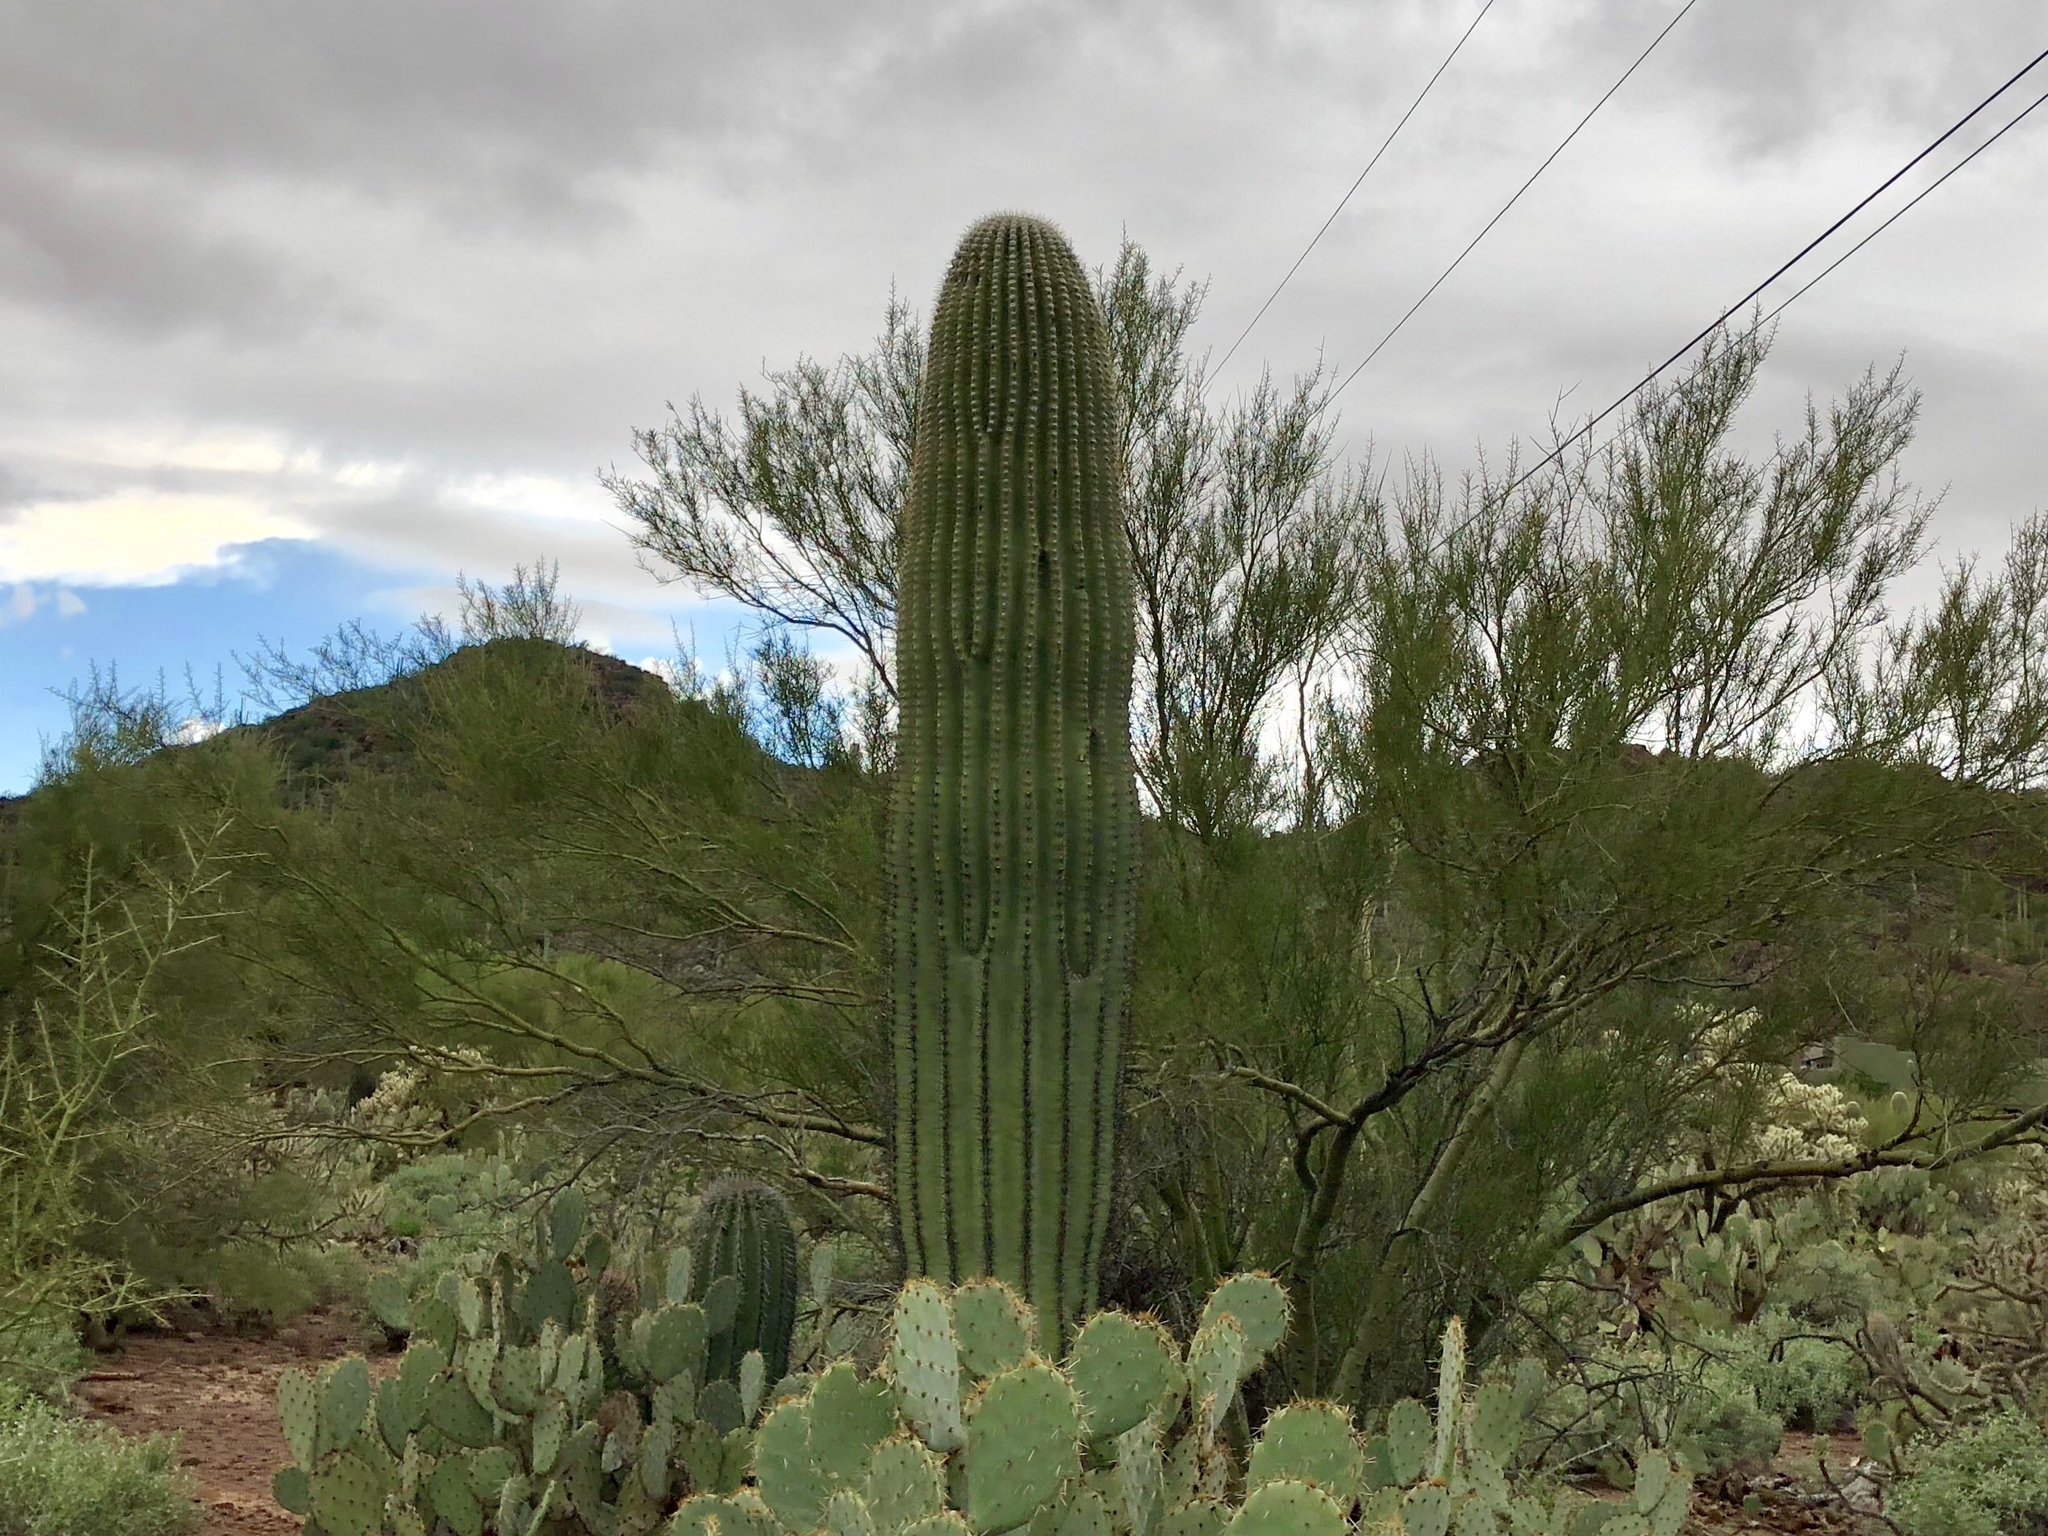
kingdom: Plantae
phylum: Tracheophyta
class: Magnoliopsida
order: Caryophyllales
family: Cactaceae
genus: Carnegiea
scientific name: Carnegiea gigantea
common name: Saguaro
